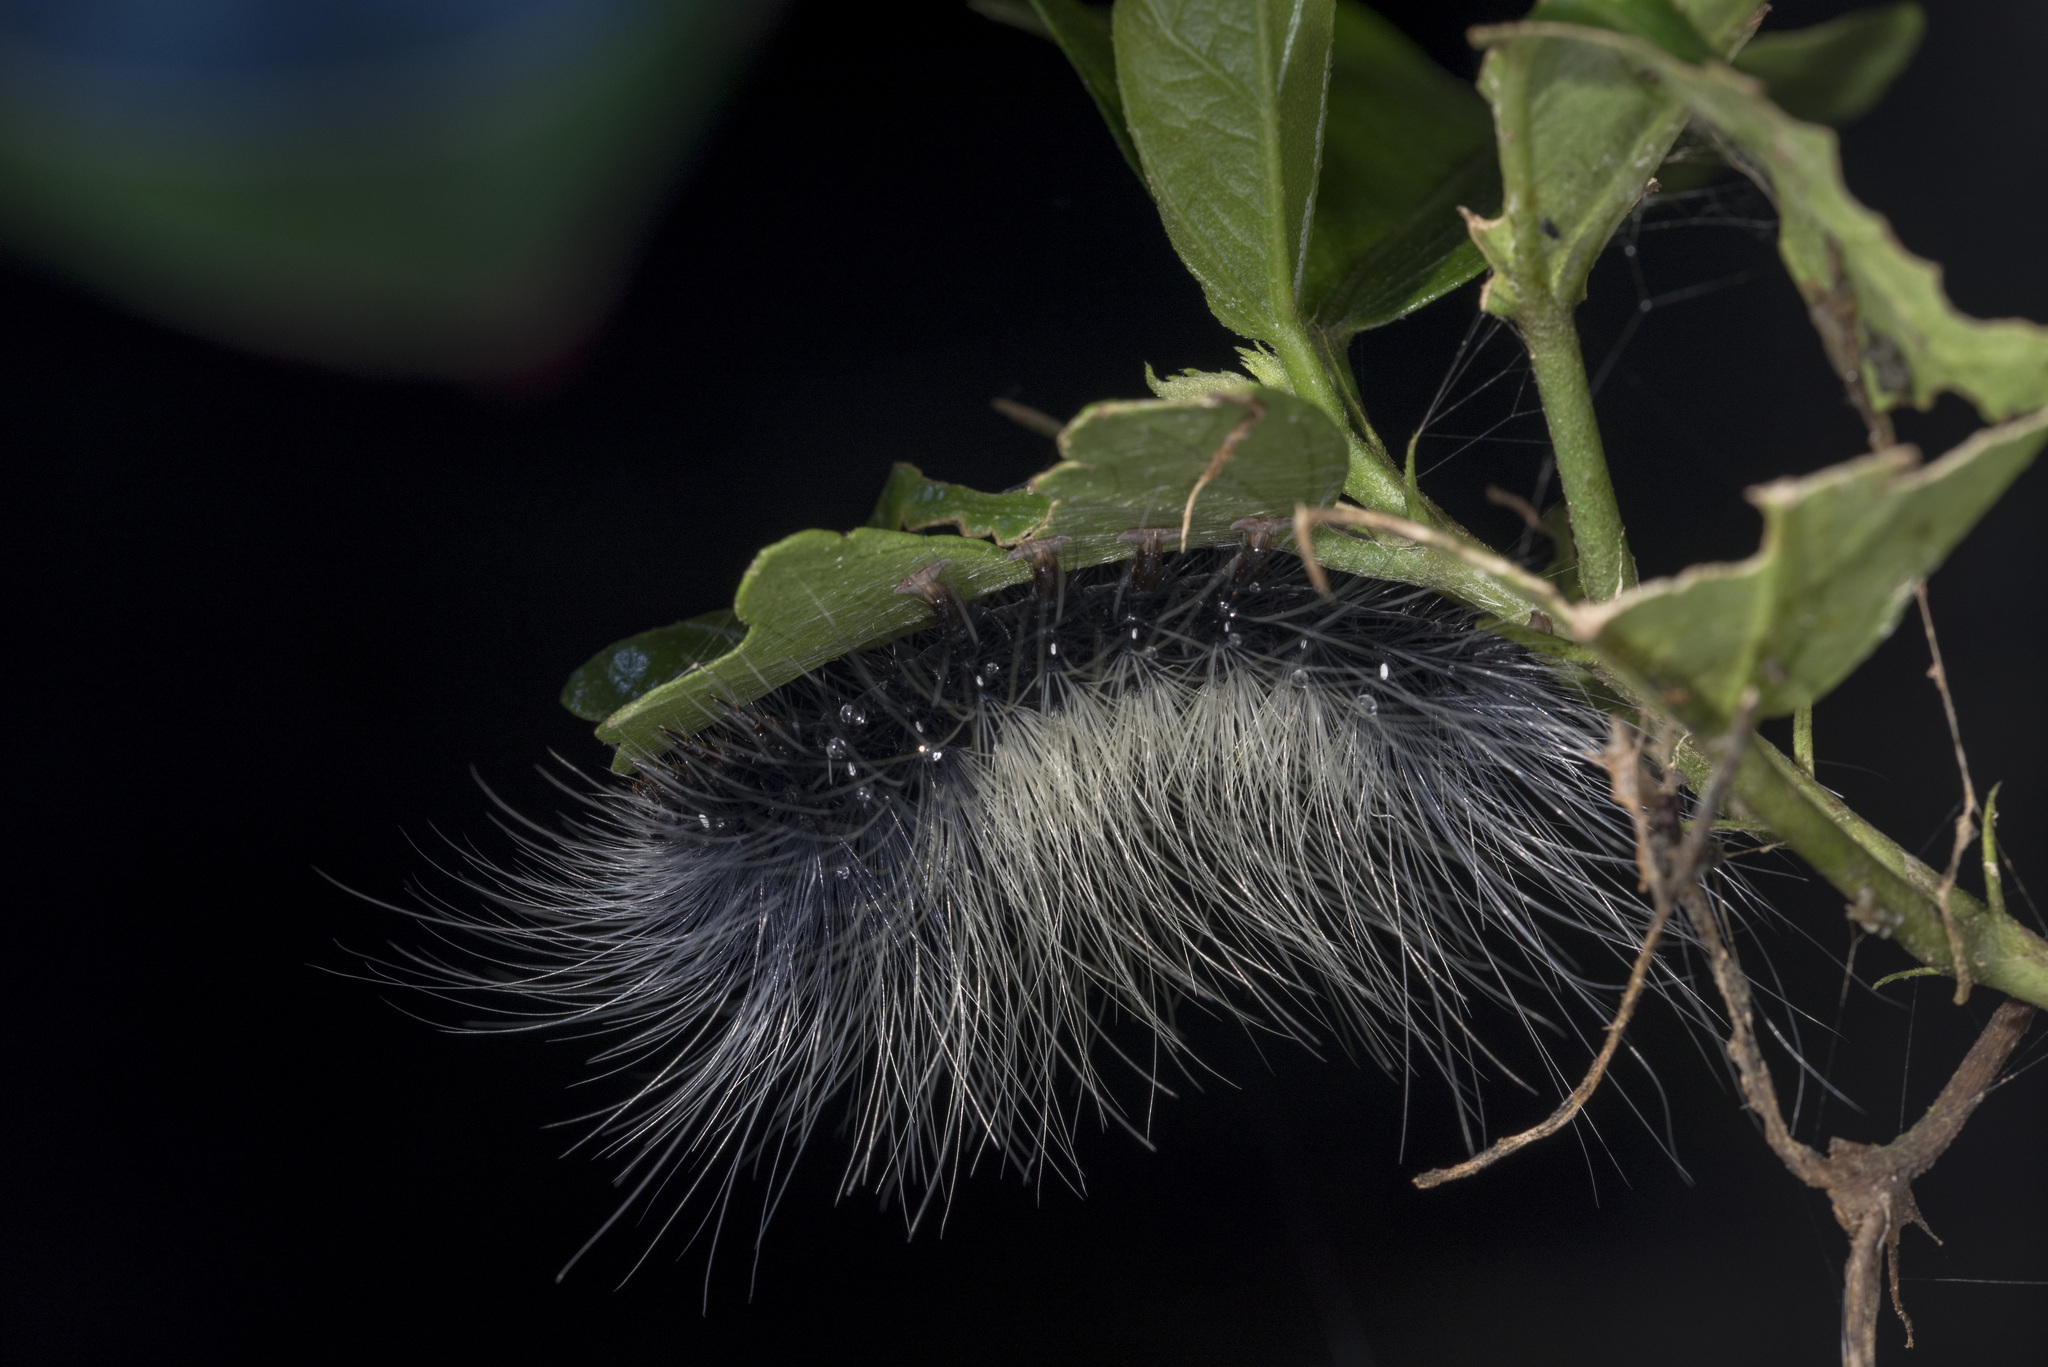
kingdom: Animalia
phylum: Arthropoda
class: Insecta
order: Lepidoptera
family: Erebidae
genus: Macrobrochis
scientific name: Macrobrochis gigas
